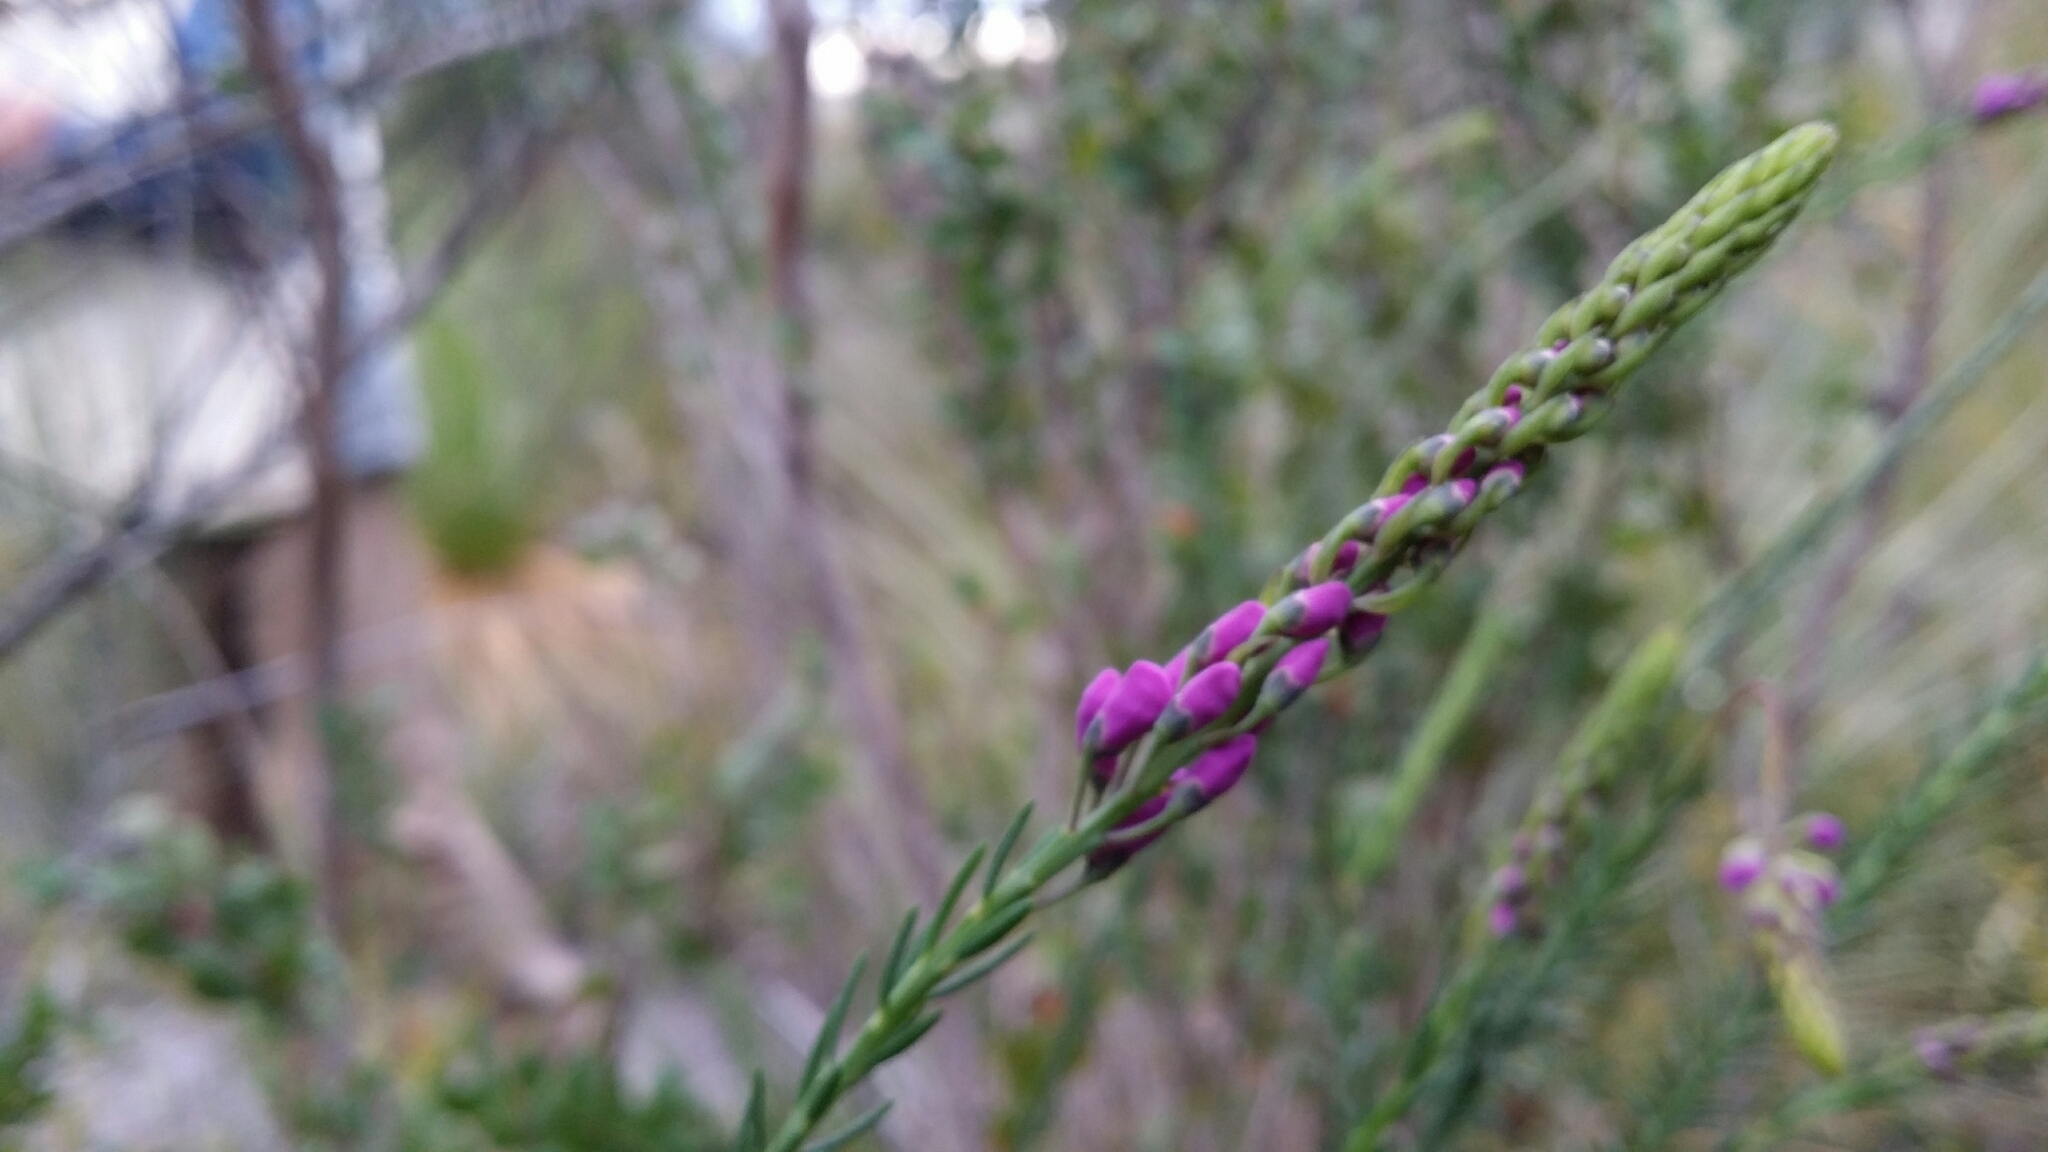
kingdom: Plantae
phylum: Tracheophyta
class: Magnoliopsida
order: Fabales
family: Polygalaceae
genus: Comesperma
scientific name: Comesperma virgatum
